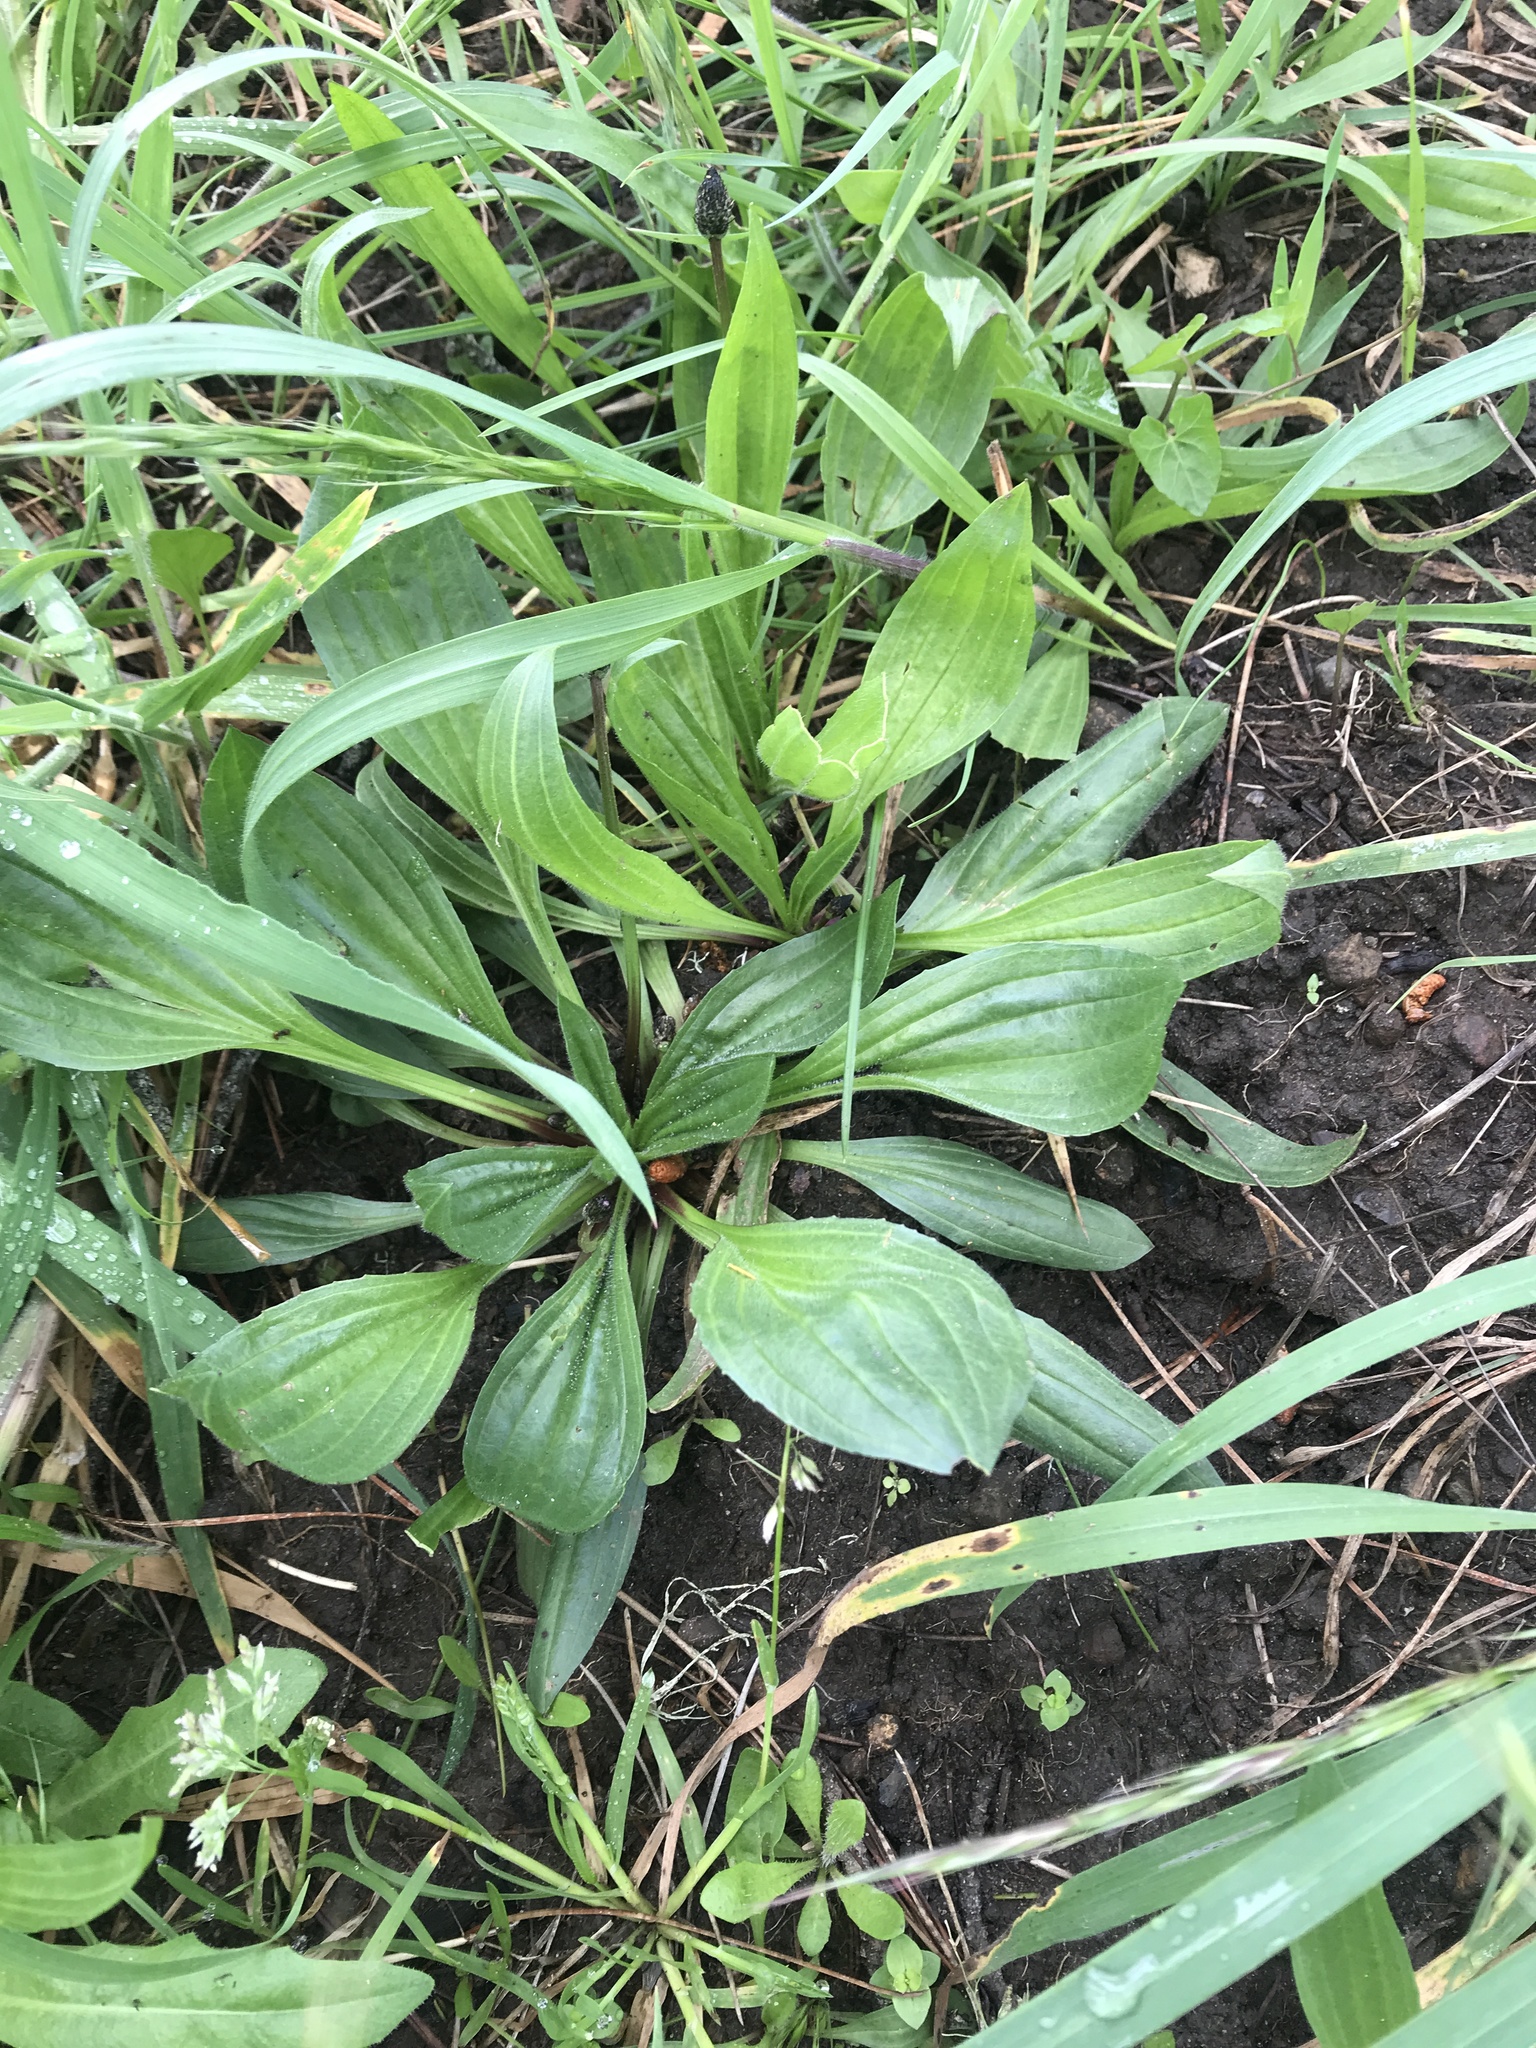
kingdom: Plantae
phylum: Tracheophyta
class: Magnoliopsida
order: Lamiales
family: Plantaginaceae
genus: Plantago
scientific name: Plantago lanceolata
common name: Ribwort plantain
